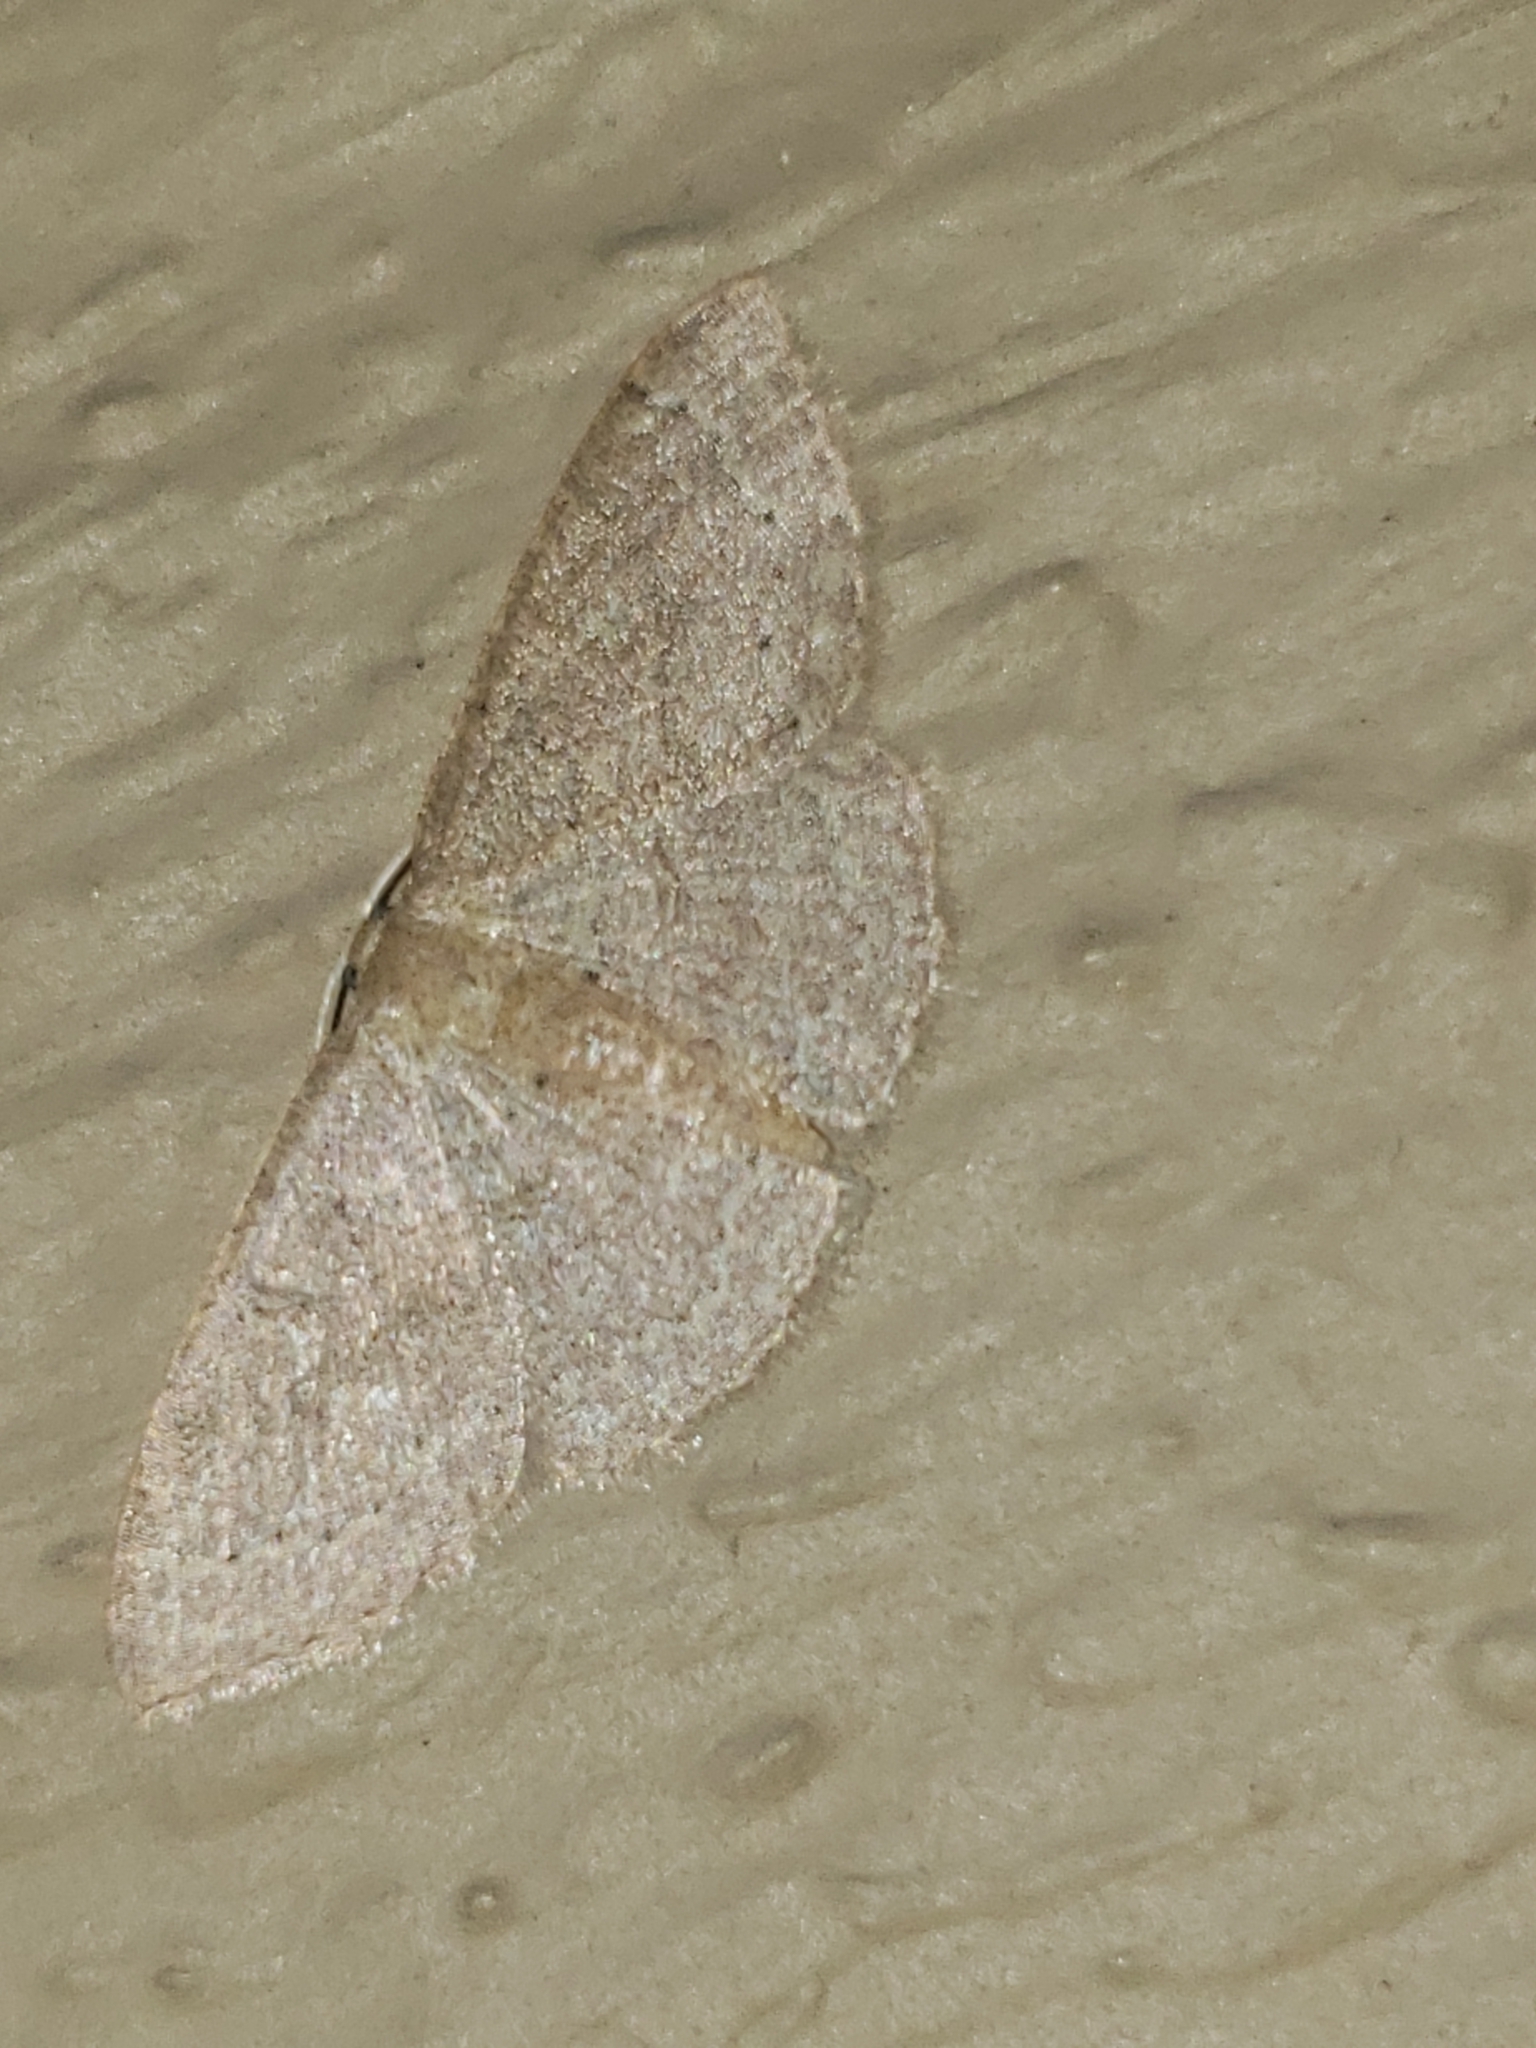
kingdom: Animalia
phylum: Arthropoda
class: Insecta
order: Lepidoptera
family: Geometridae
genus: Pleuroprucha
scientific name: Pleuroprucha insulsaria
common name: Common tan wave
